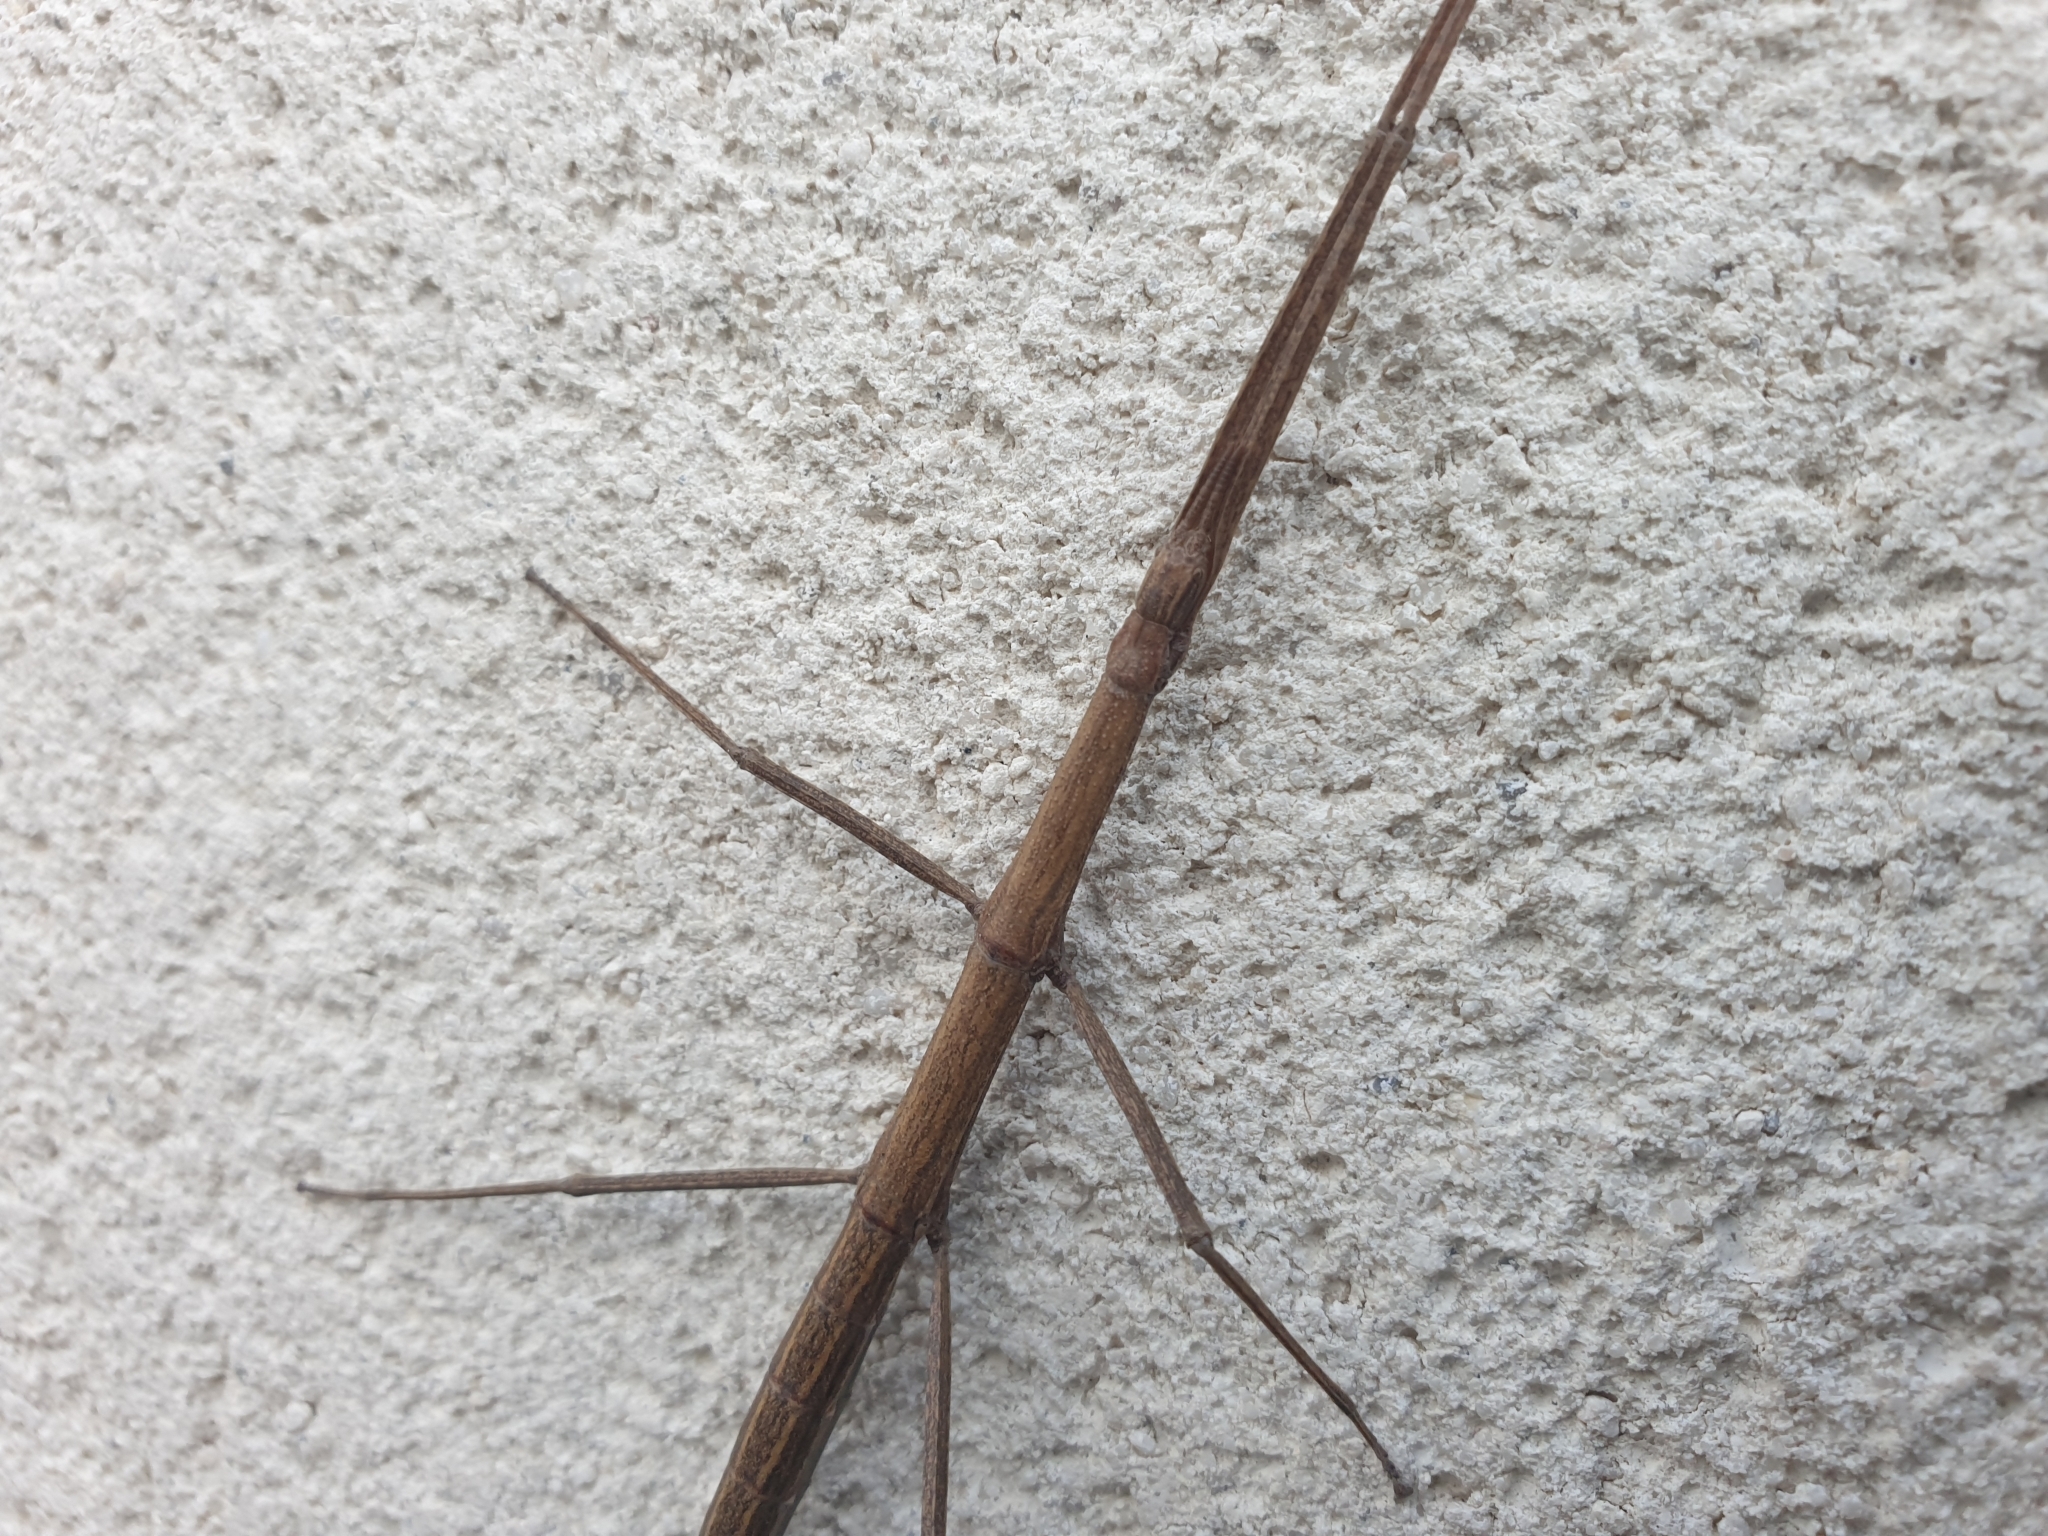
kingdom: Animalia
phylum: Arthropoda
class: Insecta
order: Phasmida
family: Bacillidae
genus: Clonopsis
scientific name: Clonopsis gallica
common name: French stick insect
